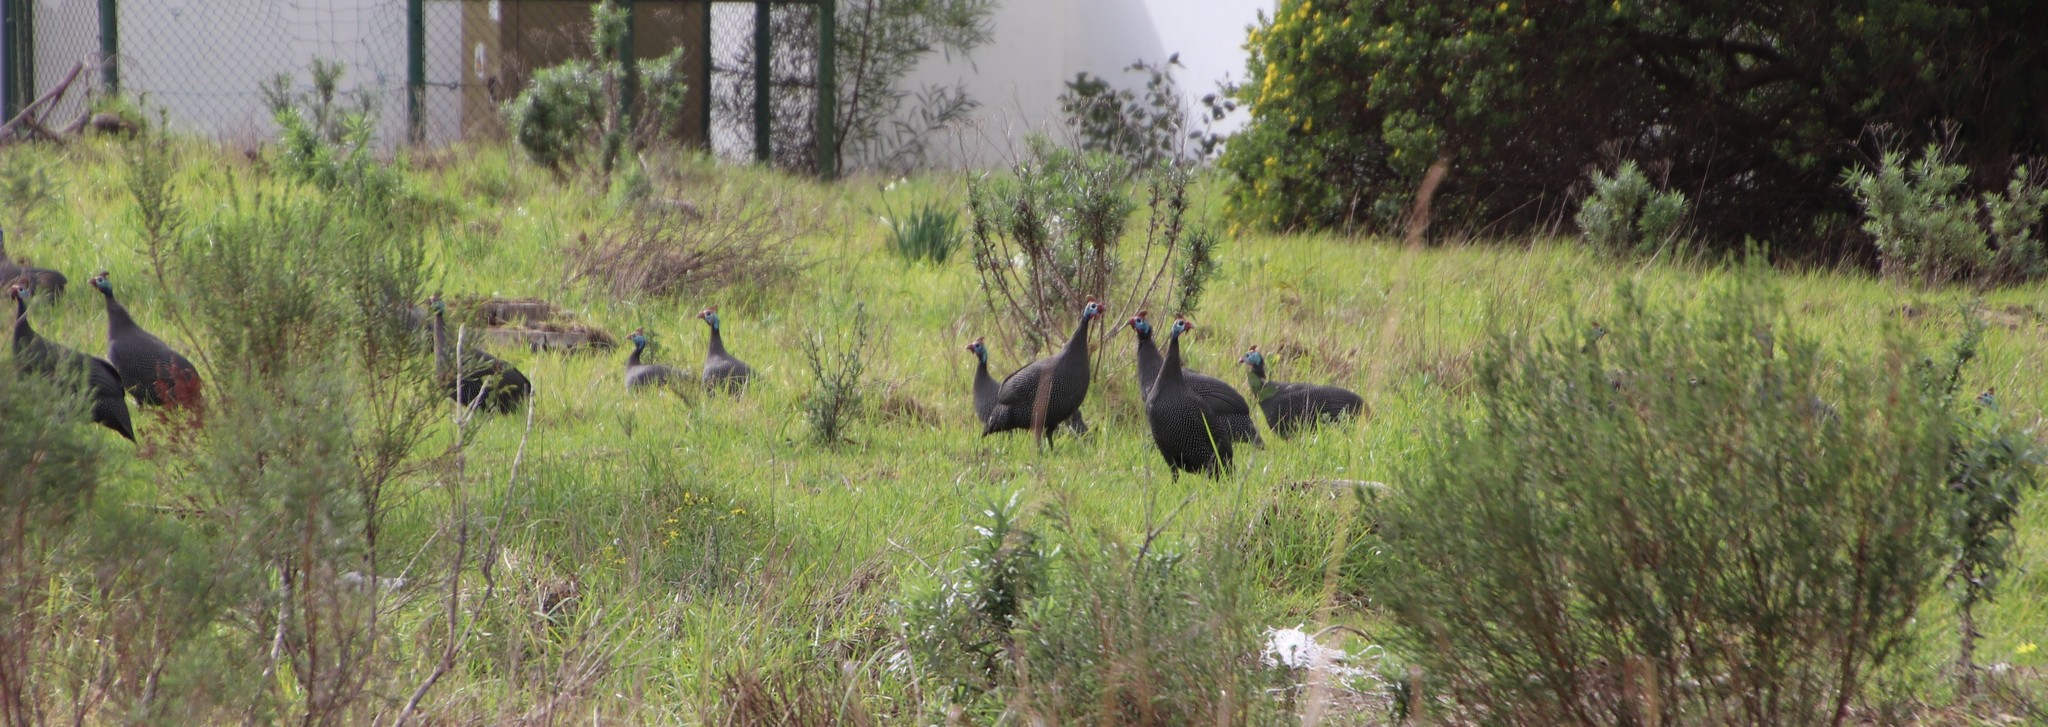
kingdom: Animalia
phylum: Chordata
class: Aves
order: Galliformes
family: Numididae
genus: Numida
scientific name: Numida meleagris
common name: Helmeted guineafowl
